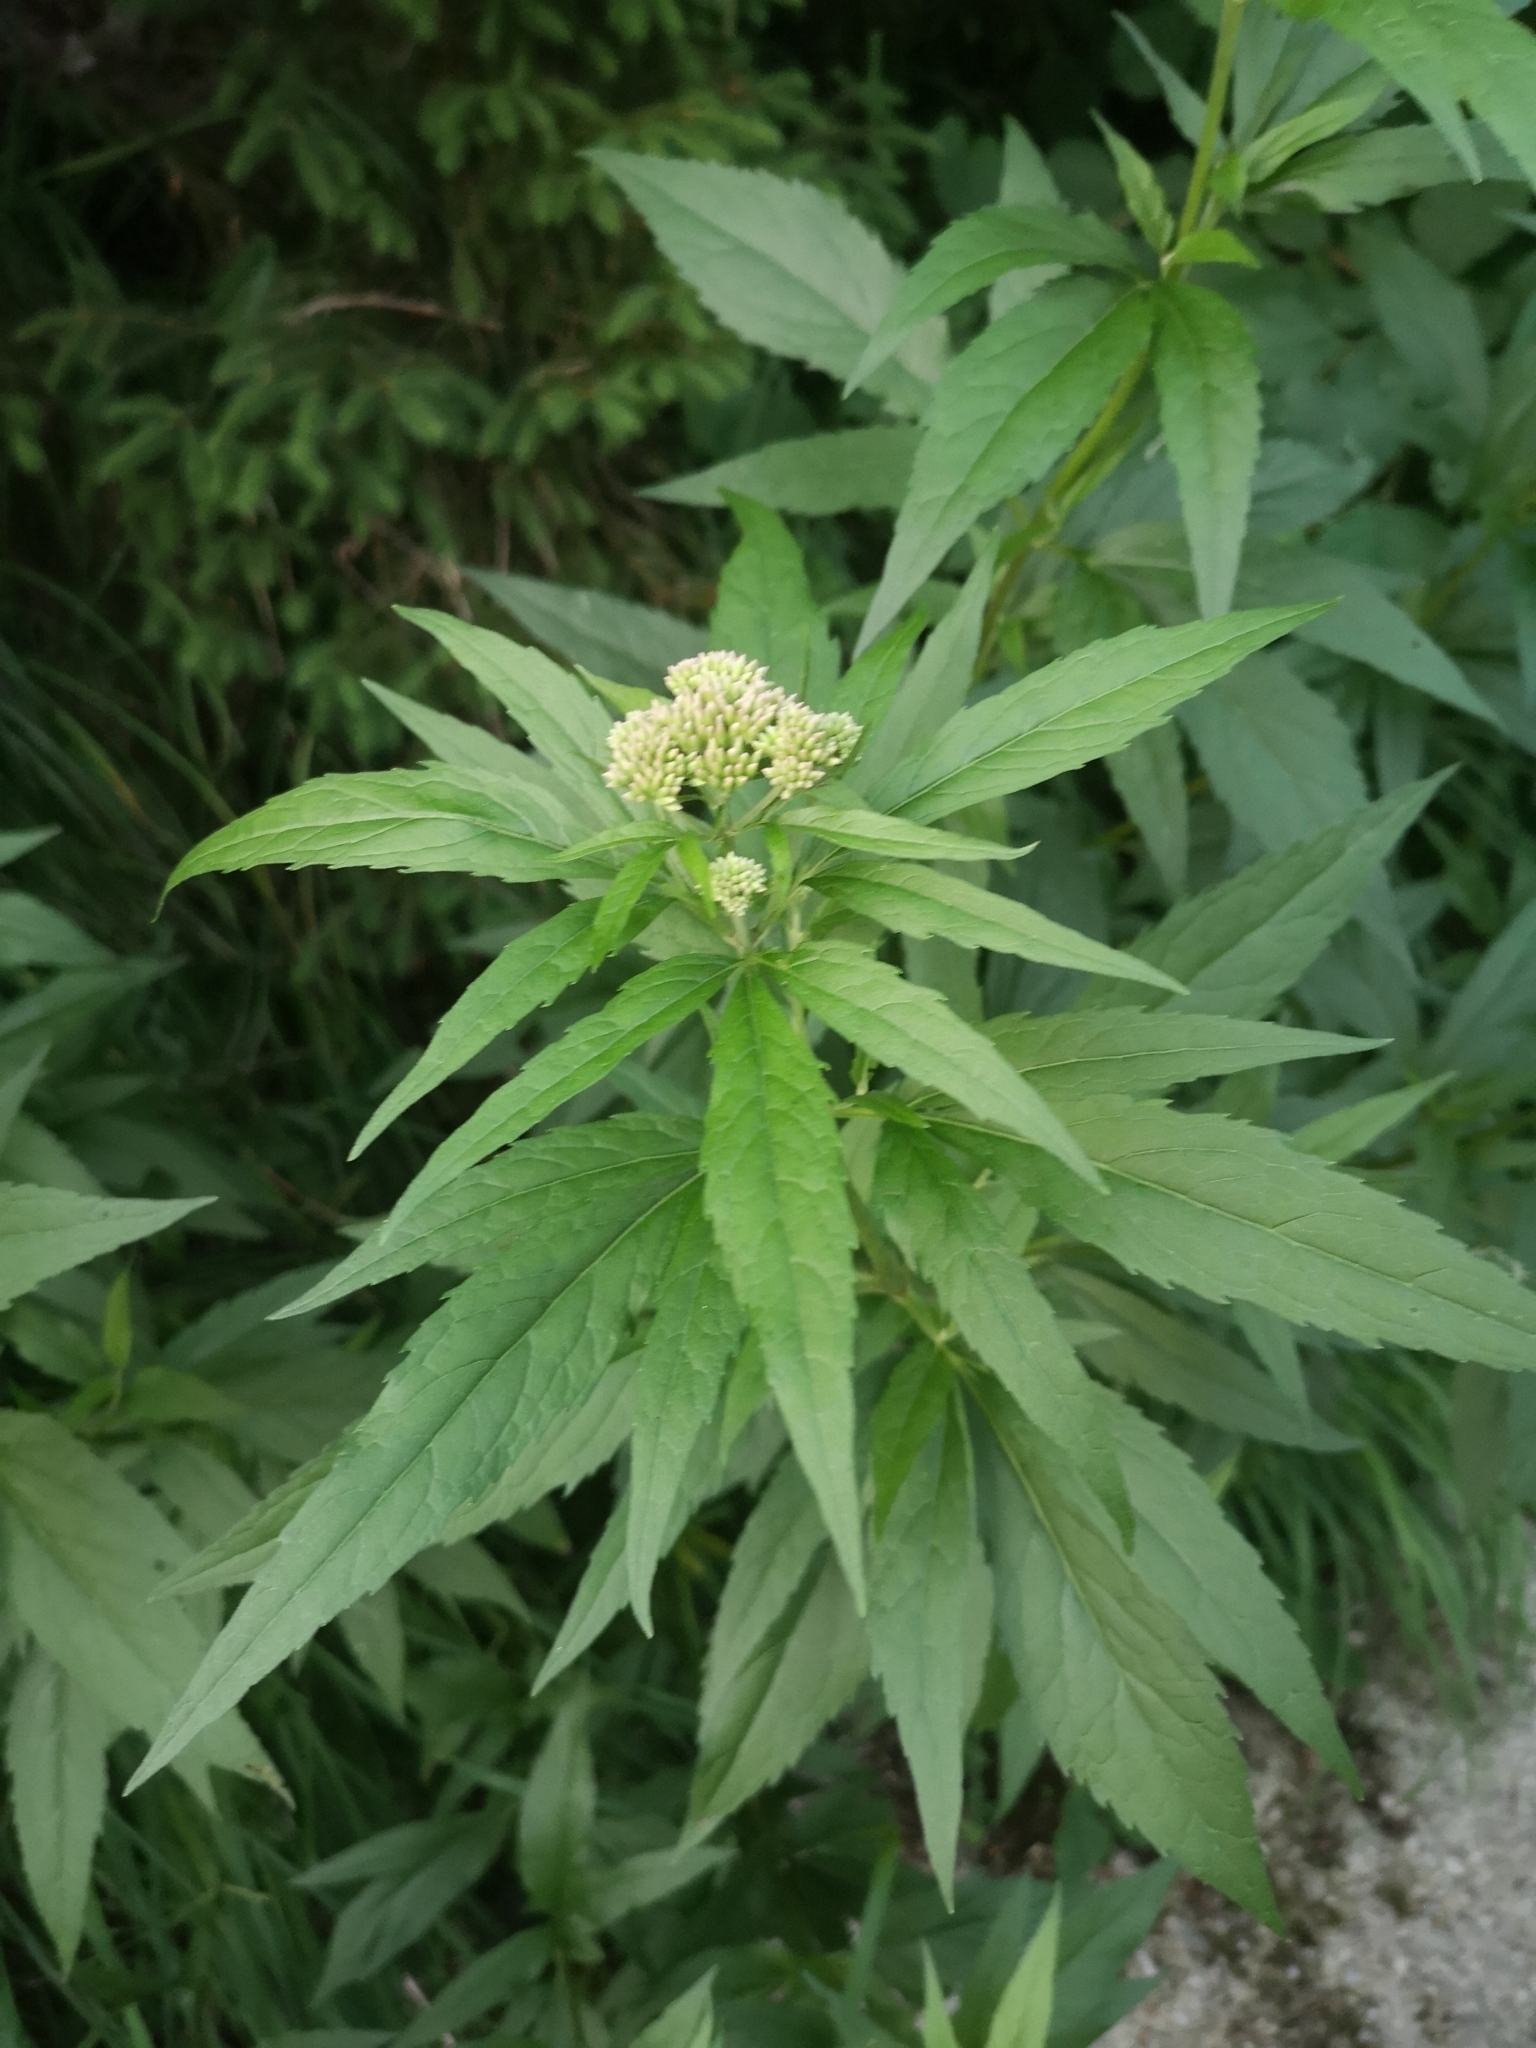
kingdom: Plantae
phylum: Tracheophyta
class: Magnoliopsida
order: Asterales
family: Asteraceae
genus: Eupatorium
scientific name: Eupatorium cannabinum
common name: Hemp-agrimony
